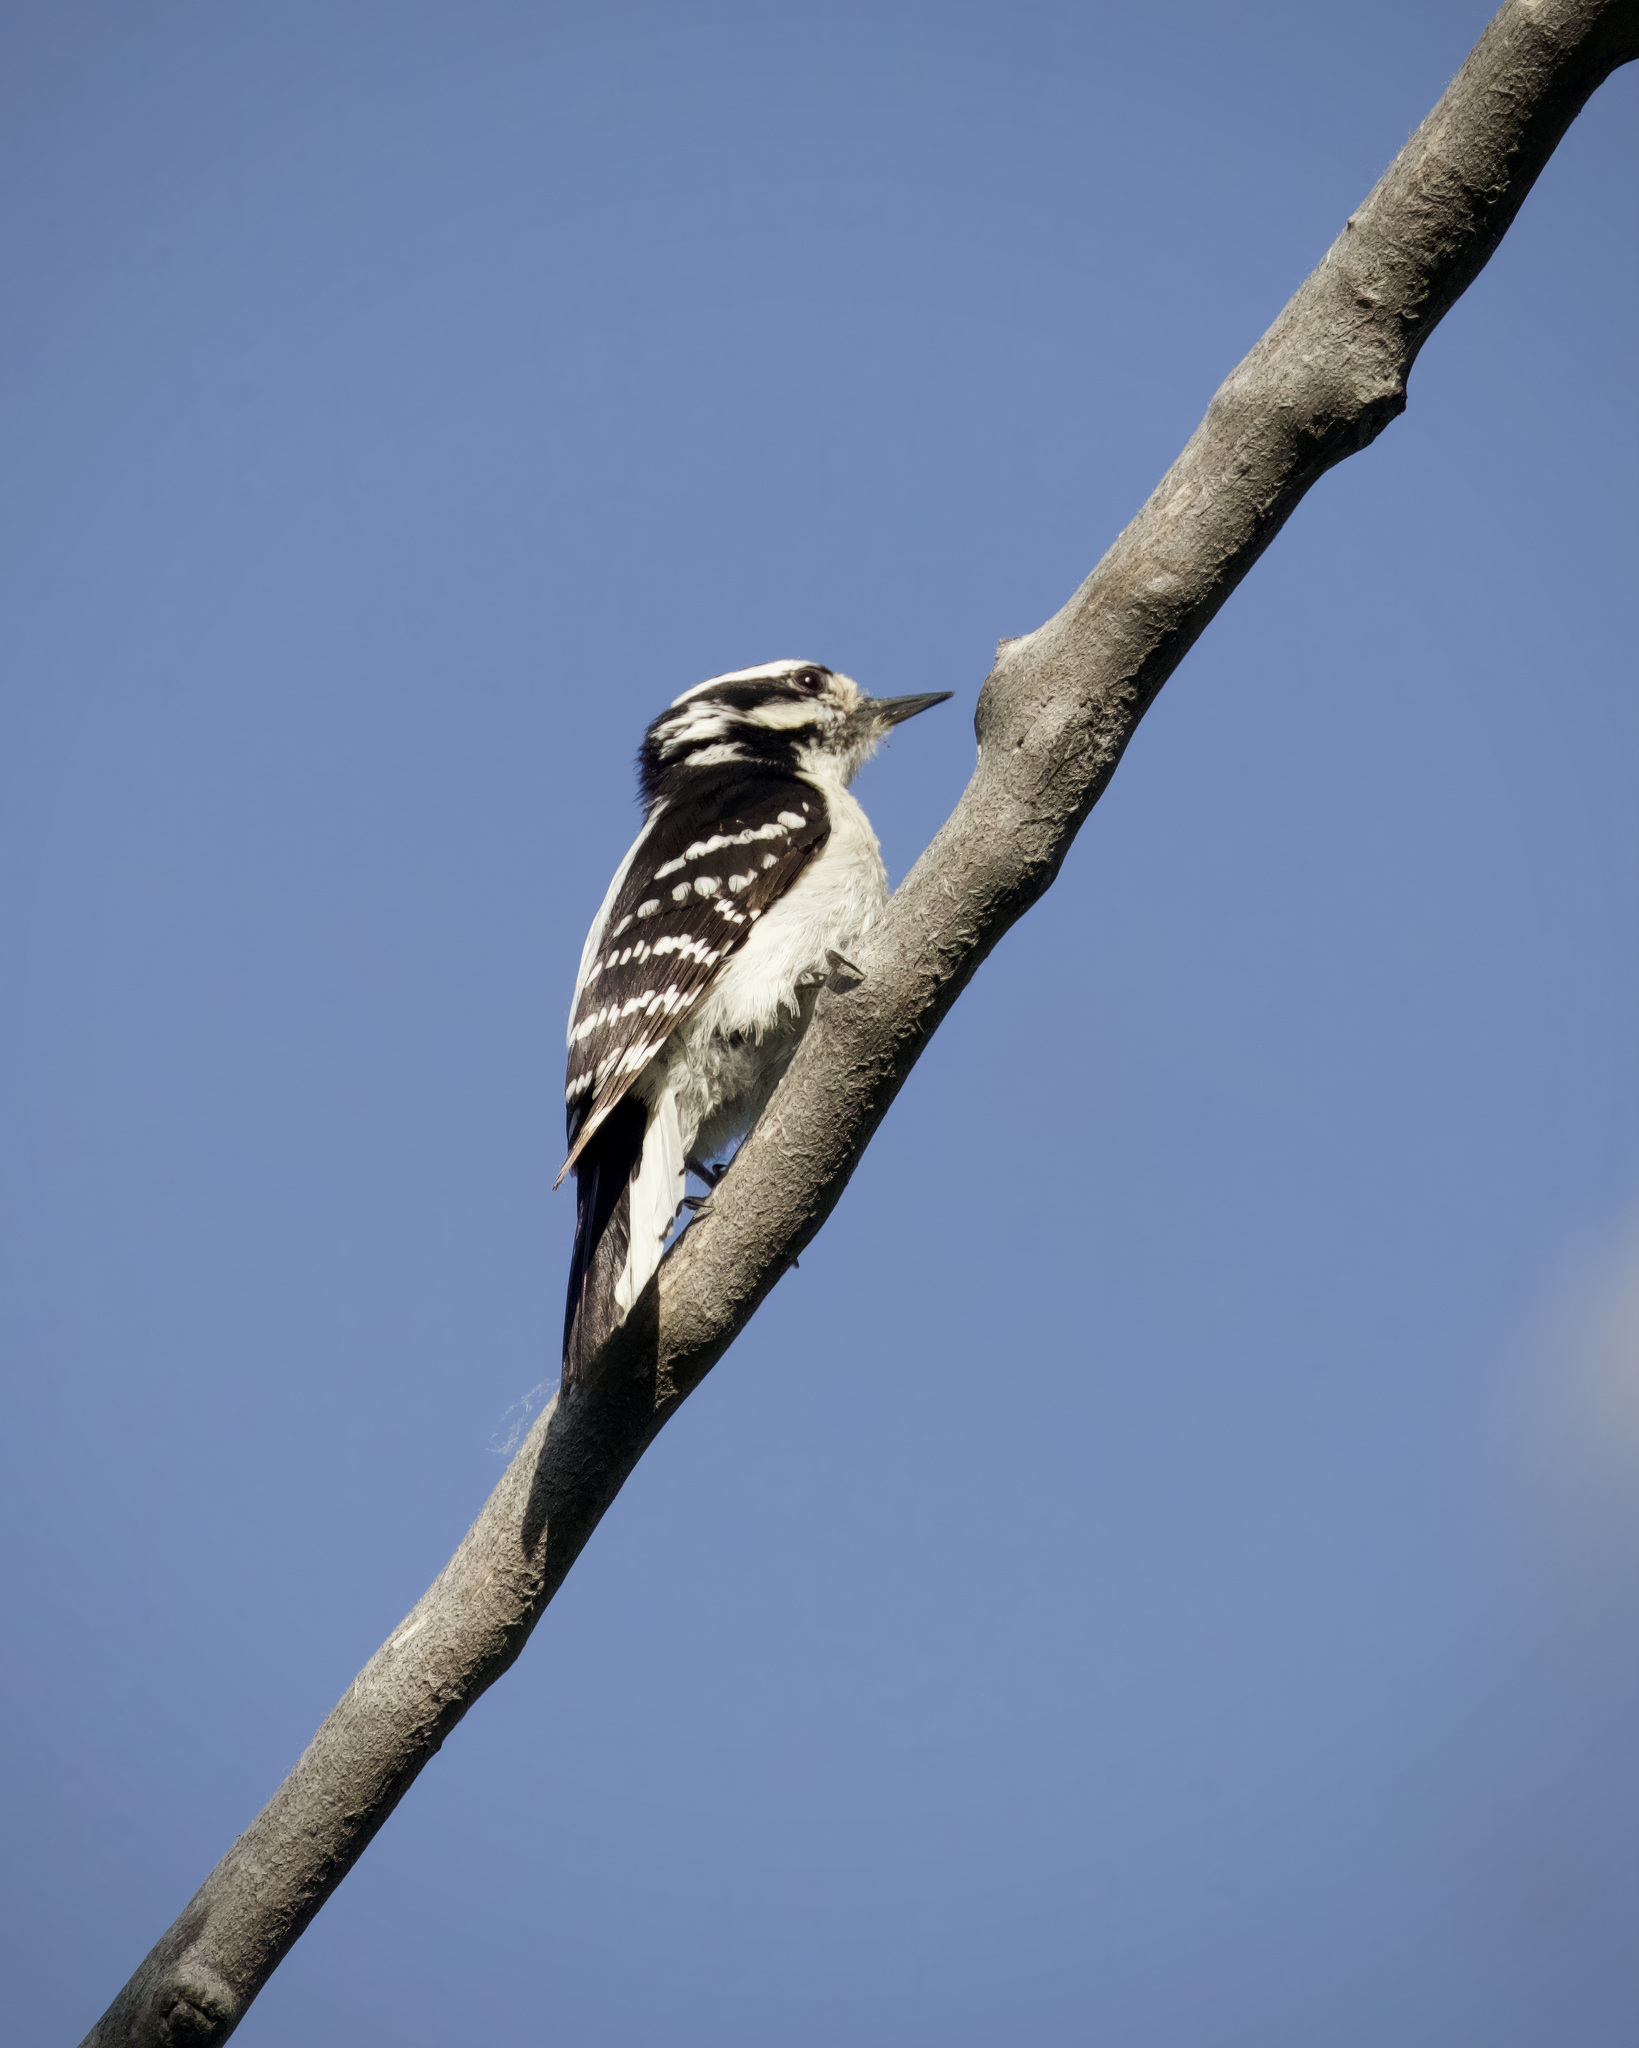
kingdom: Animalia
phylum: Chordata
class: Aves
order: Piciformes
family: Picidae
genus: Dryobates
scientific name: Dryobates pubescens
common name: Downy woodpecker
